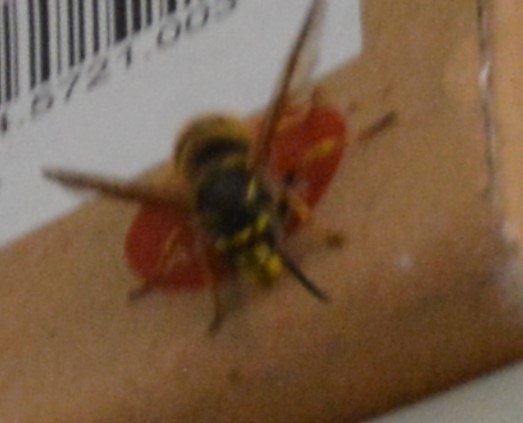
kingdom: Animalia
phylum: Arthropoda
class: Insecta
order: Hymenoptera
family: Vespidae
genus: Vespula
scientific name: Vespula vulgaris
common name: Common wasp
